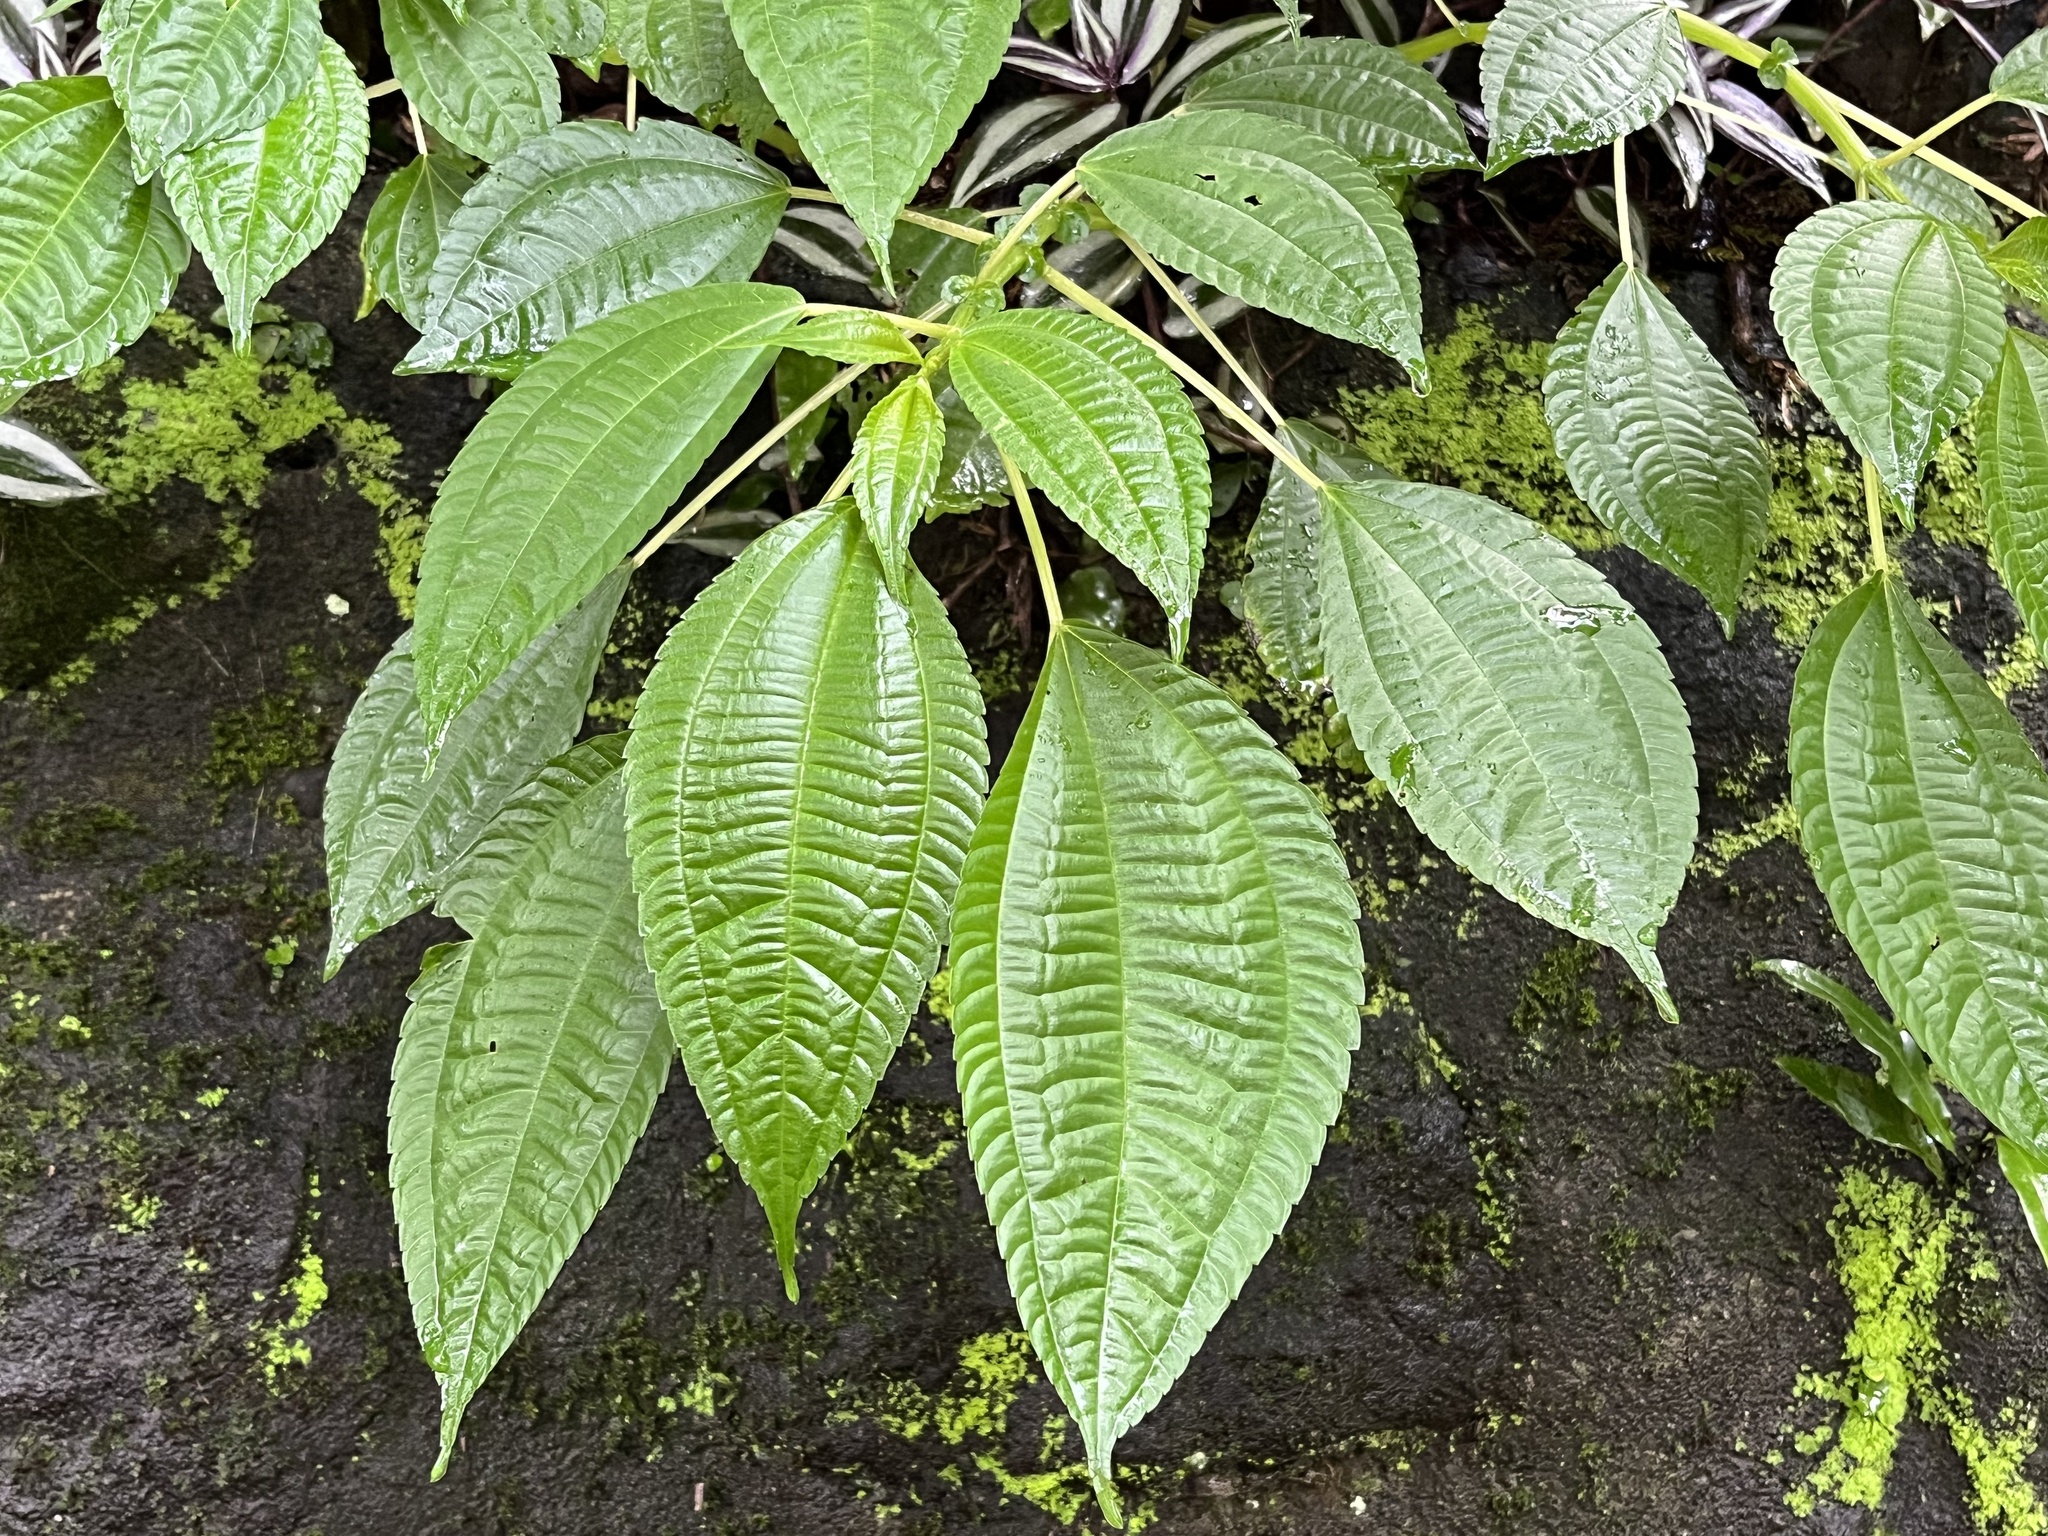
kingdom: Plantae
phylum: Tracheophyta
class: Magnoliopsida
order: Rosales
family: Urticaceae
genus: Pilea
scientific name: Pilea melastomoides
